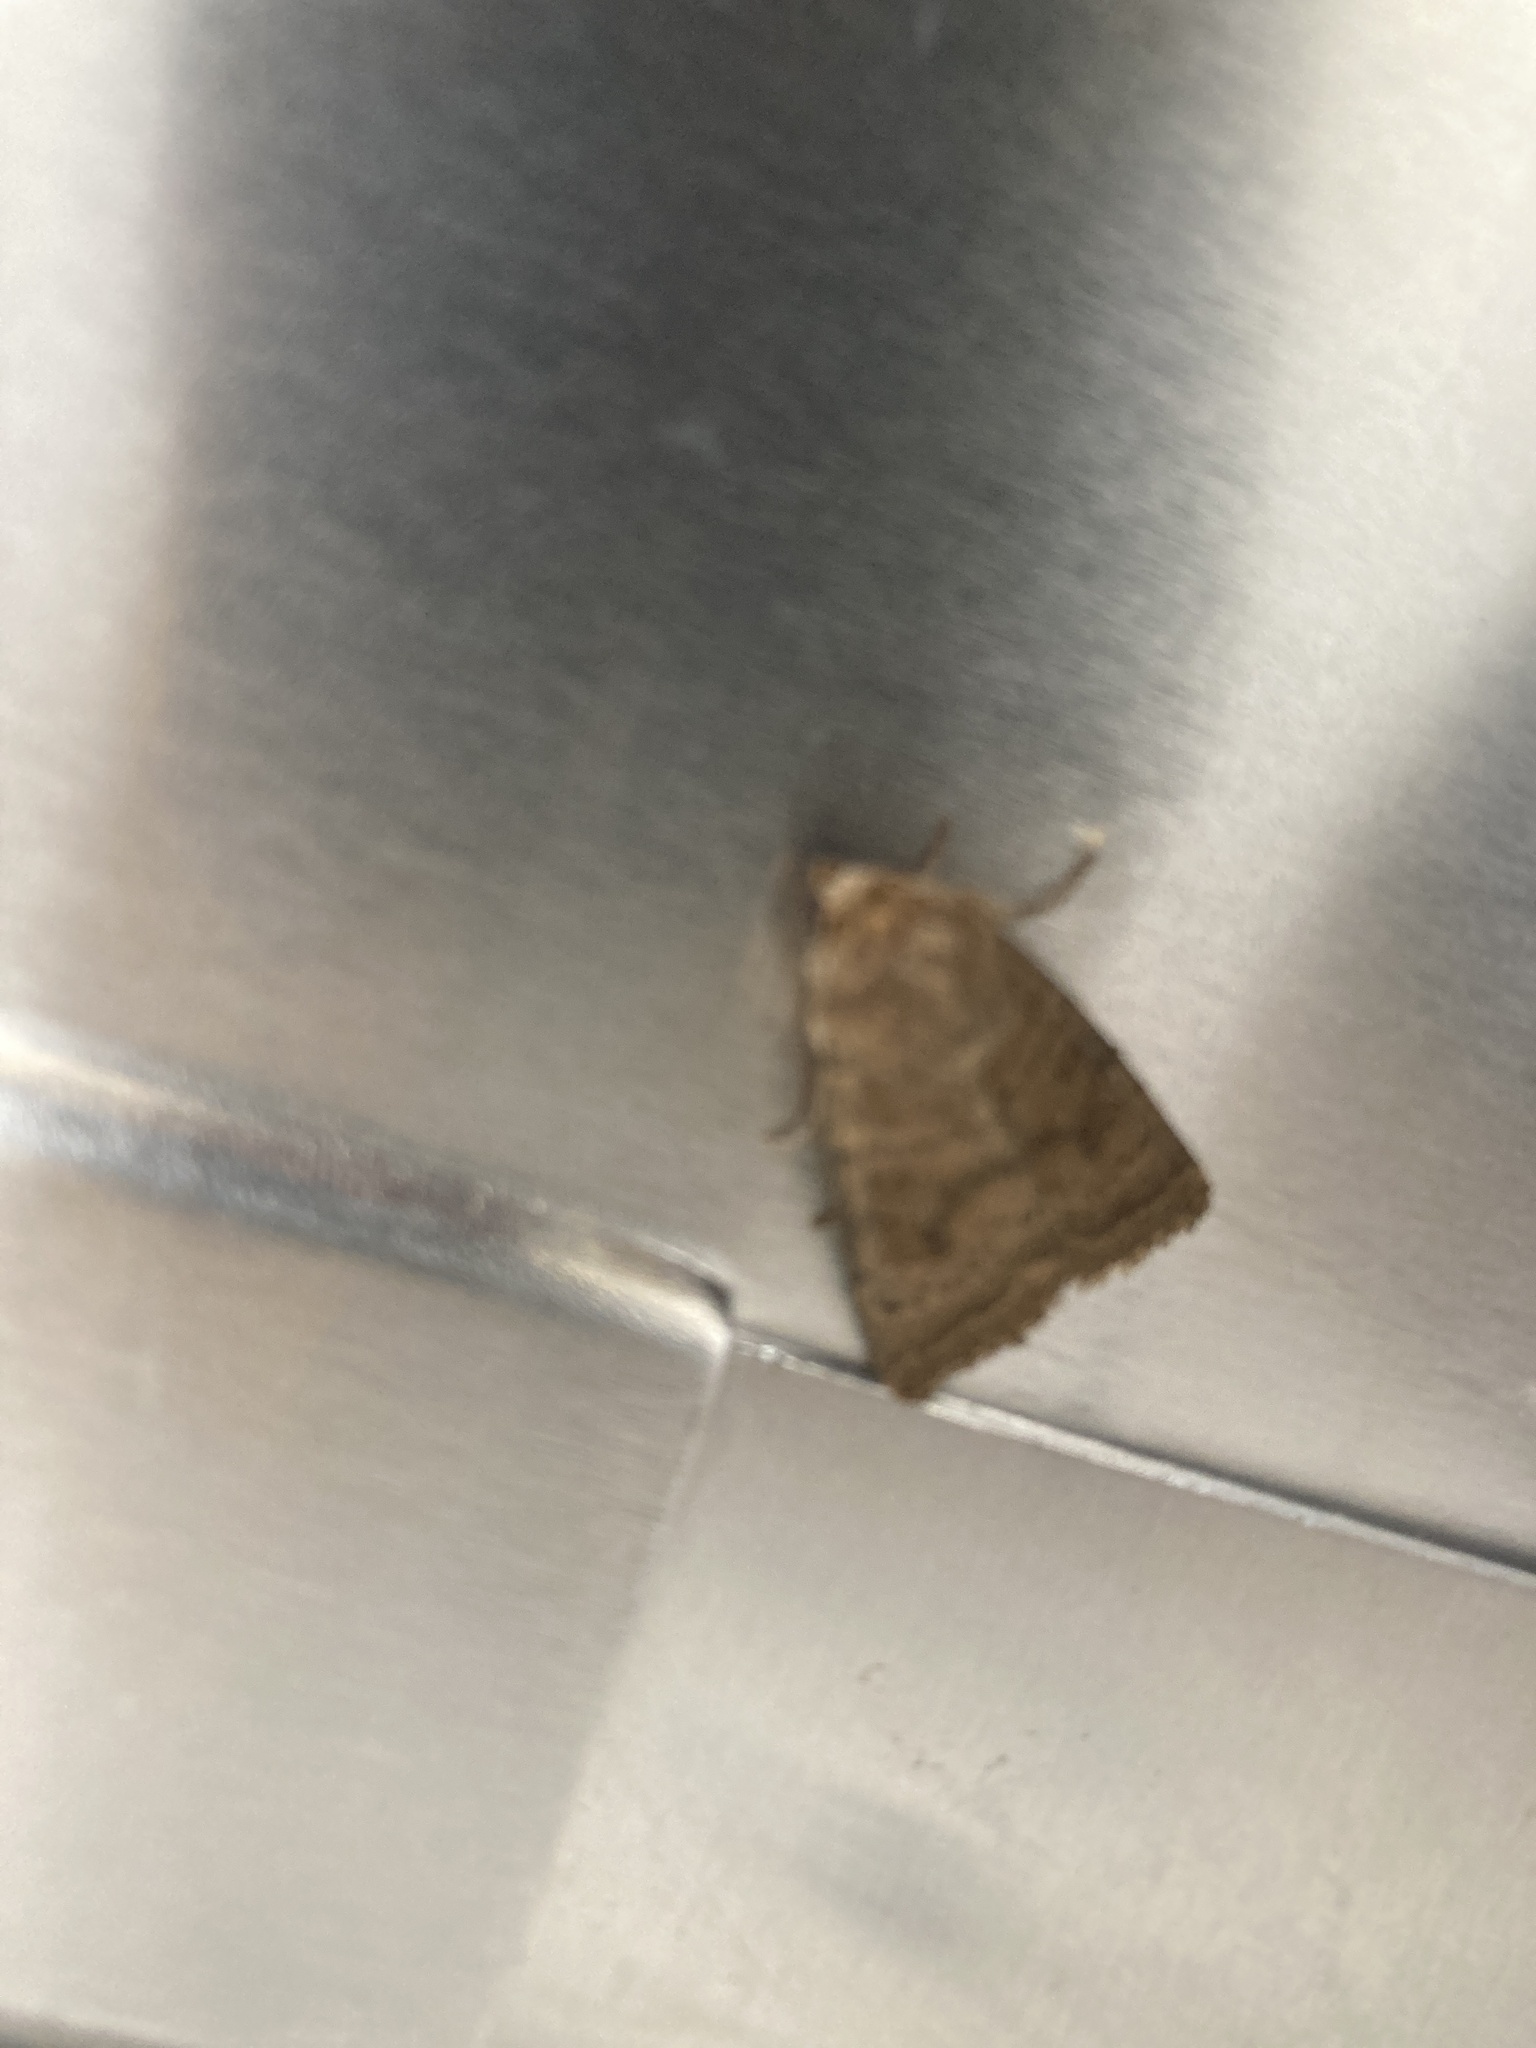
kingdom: Animalia
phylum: Arthropoda
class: Insecta
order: Lepidoptera
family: Noctuidae
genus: Hoplodrina
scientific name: Hoplodrina octogenaria
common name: Uncertain
